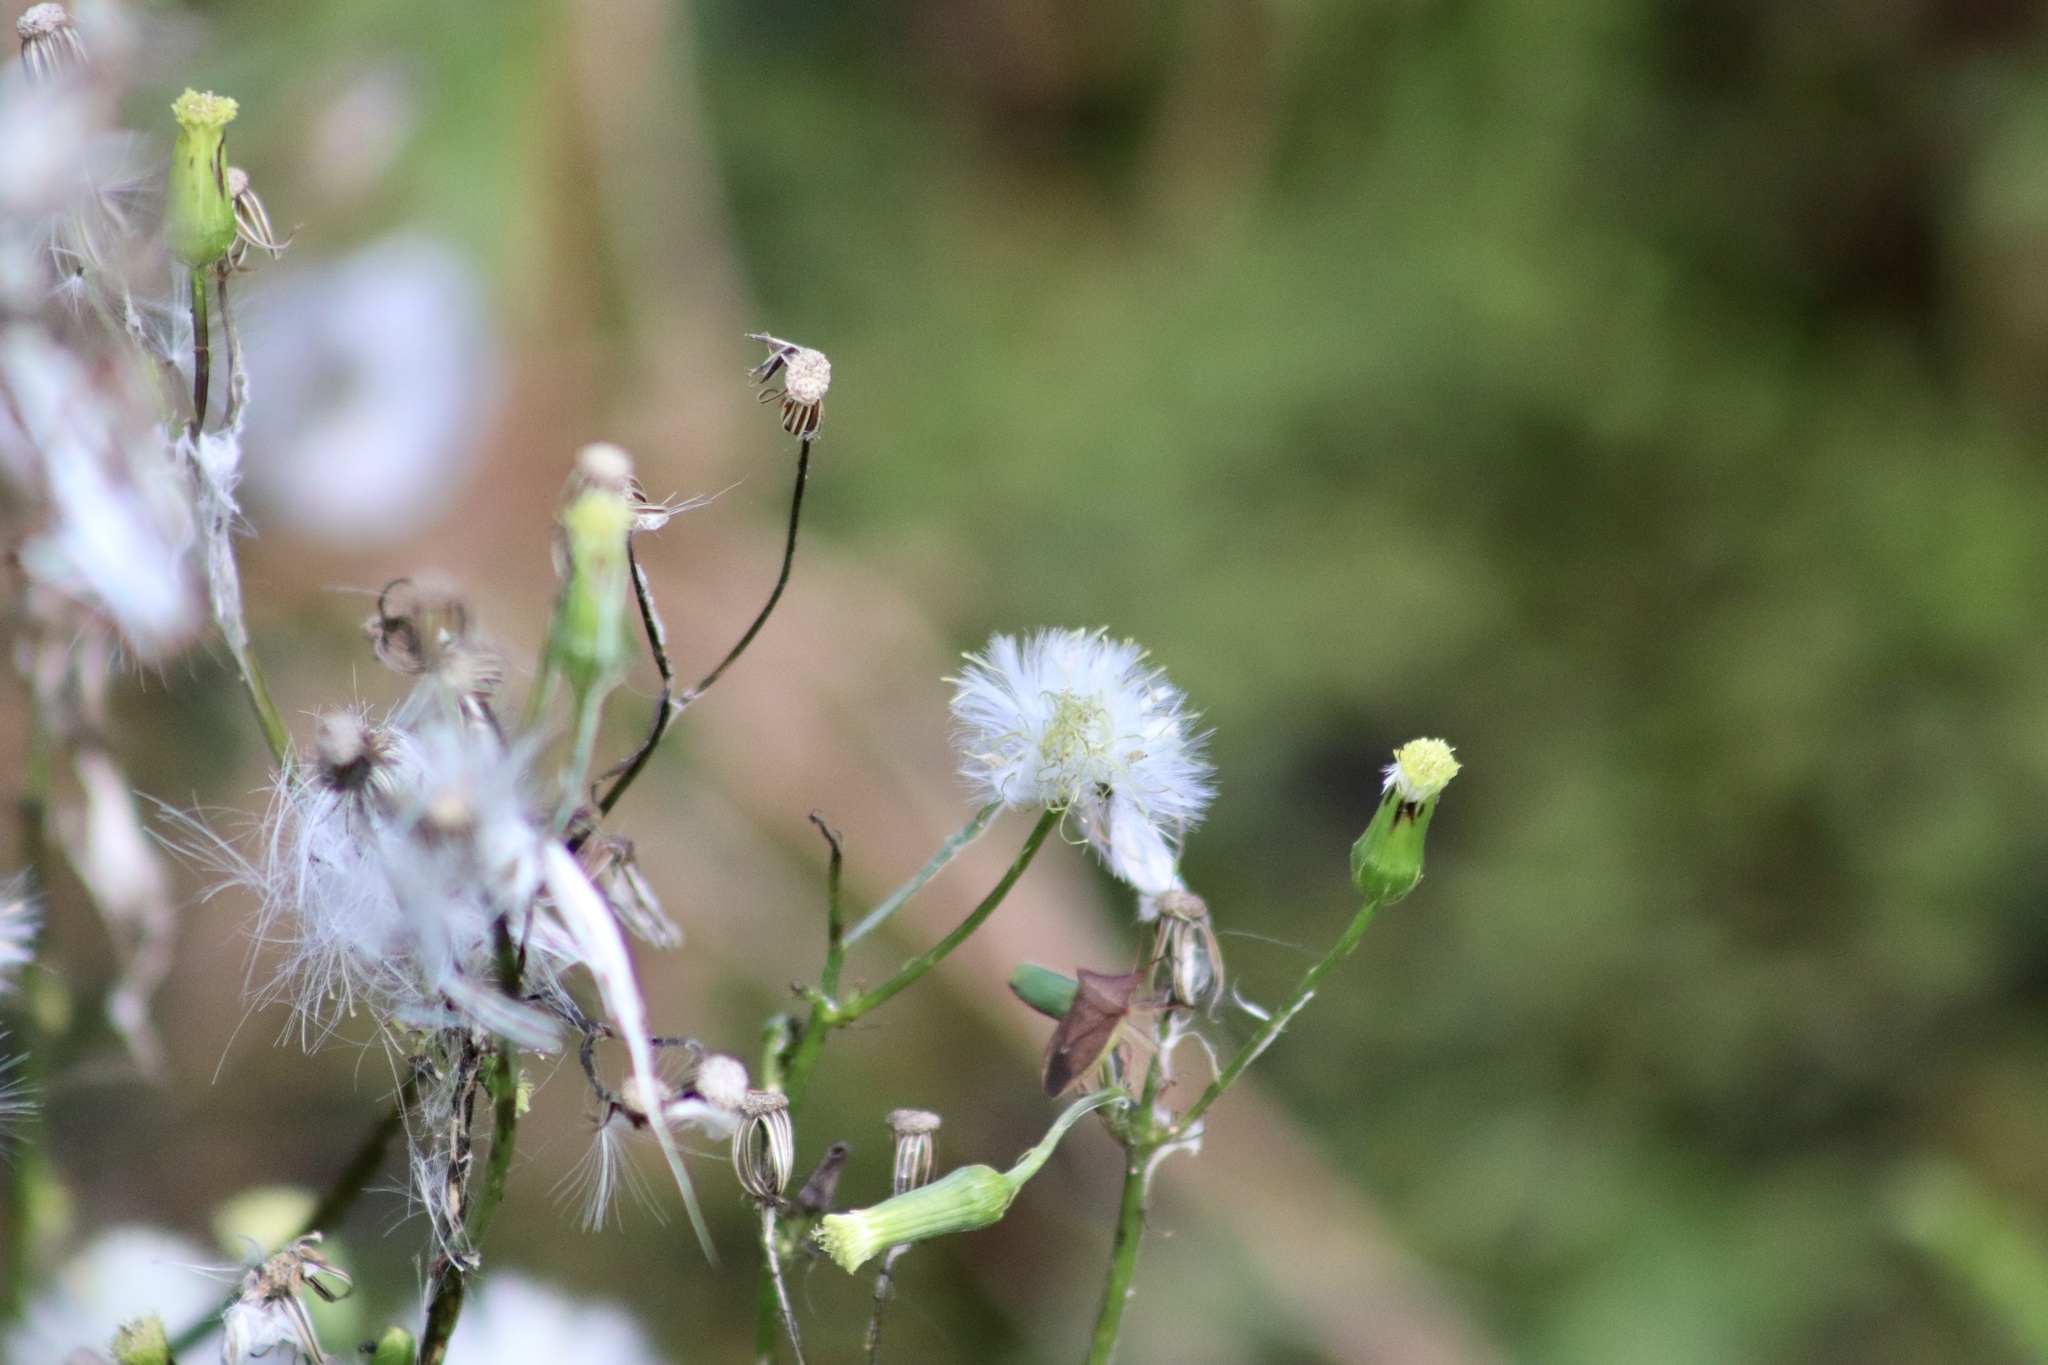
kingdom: Plantae
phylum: Tracheophyta
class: Magnoliopsida
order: Asterales
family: Asteraceae
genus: Erechtites
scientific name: Erechtites hieraciifolius
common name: American burnweed
